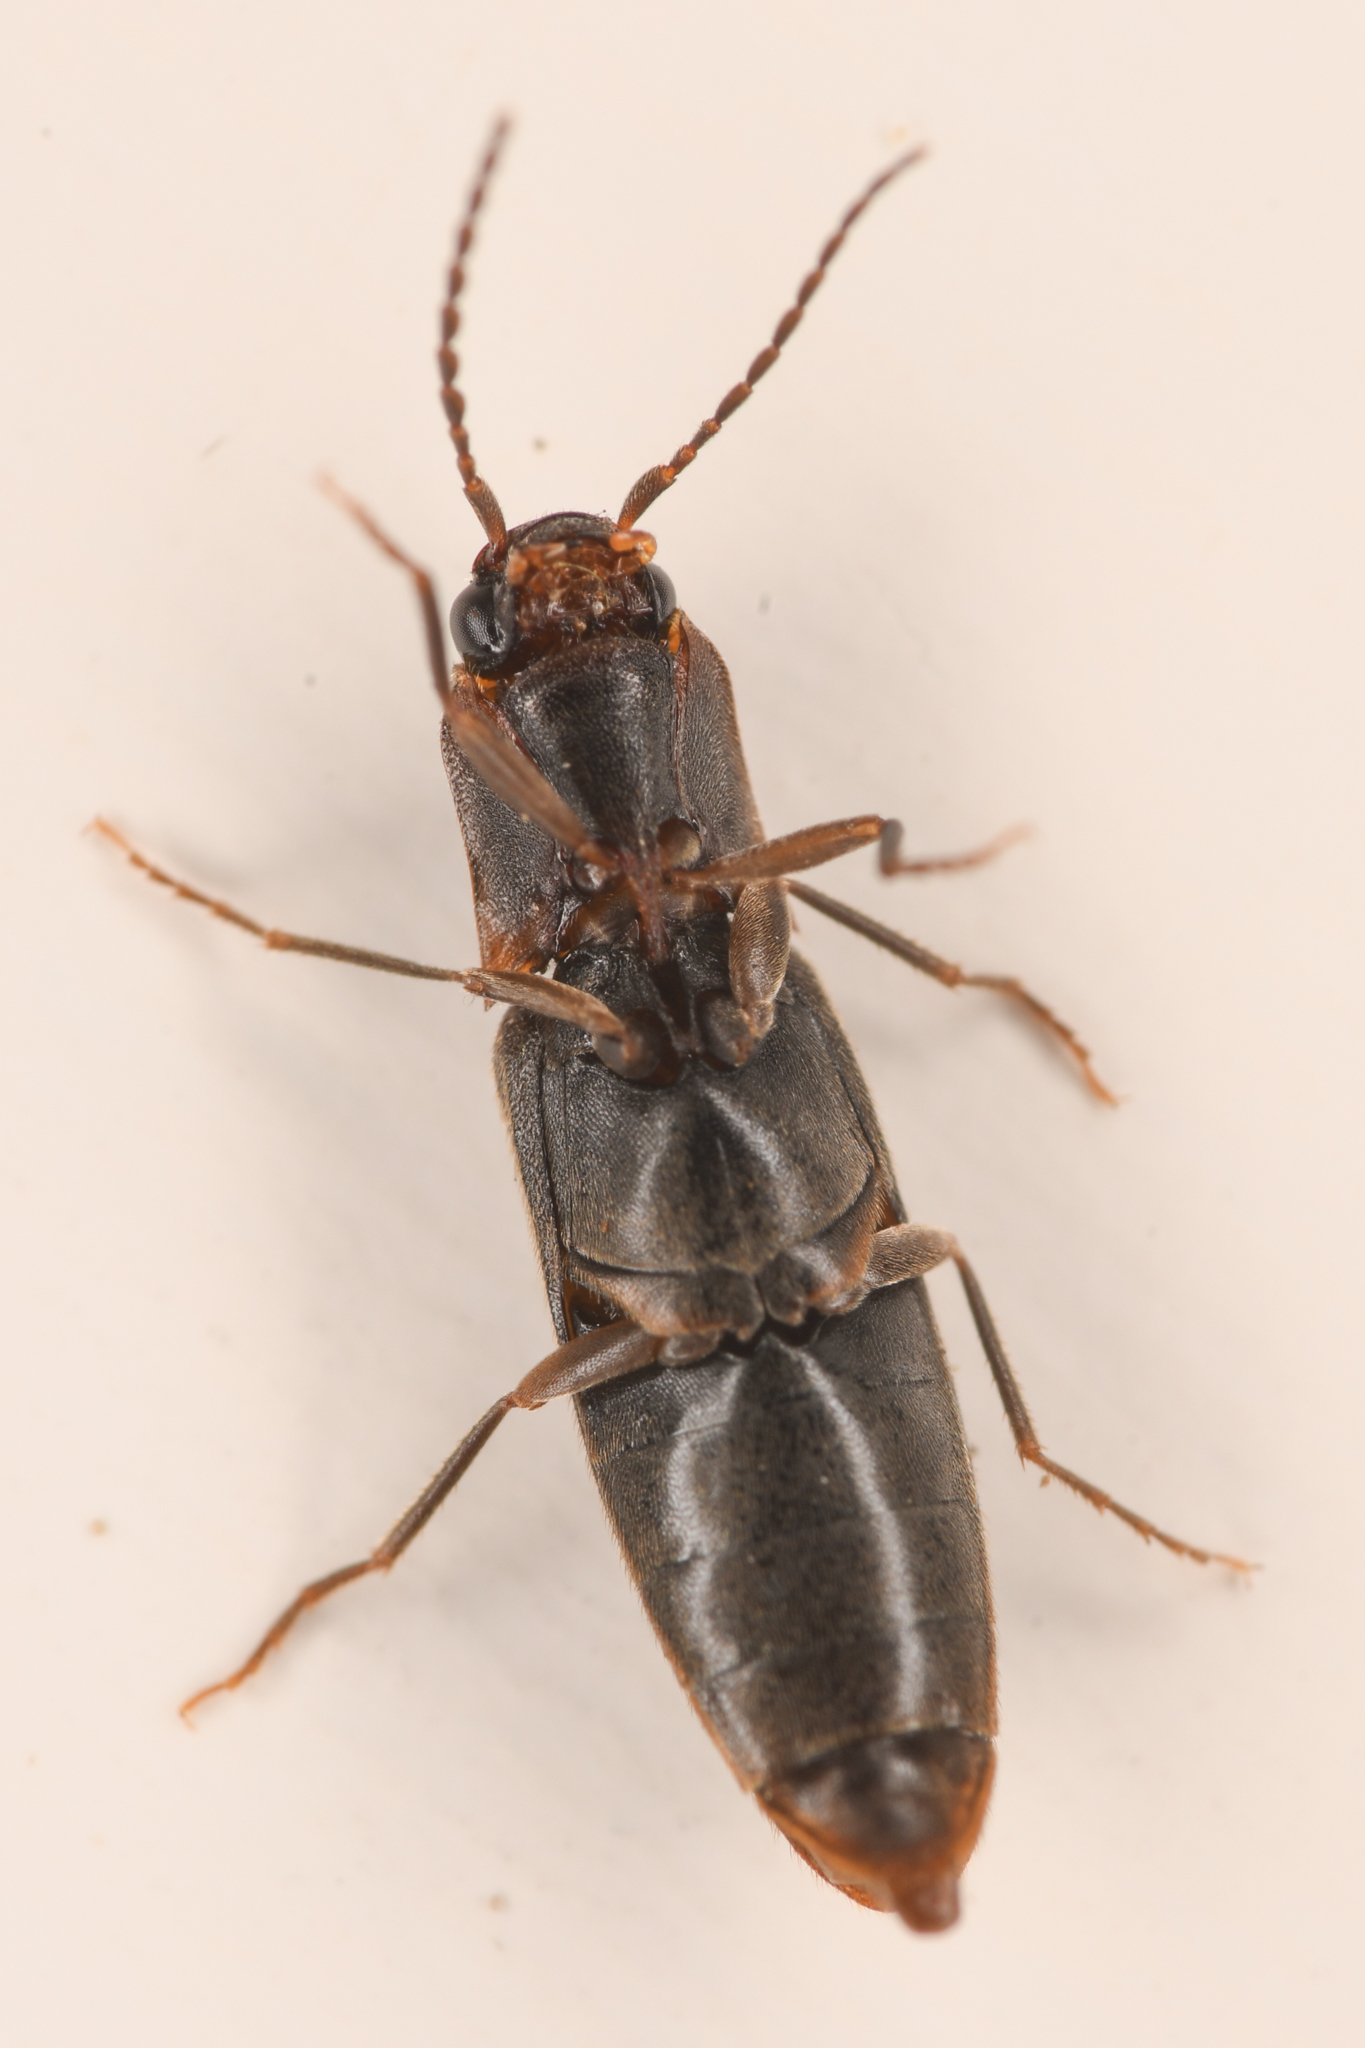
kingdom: Animalia
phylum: Arthropoda
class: Insecta
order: Coleoptera
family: Elateridae
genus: Dalopius
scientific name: Dalopius spretus
